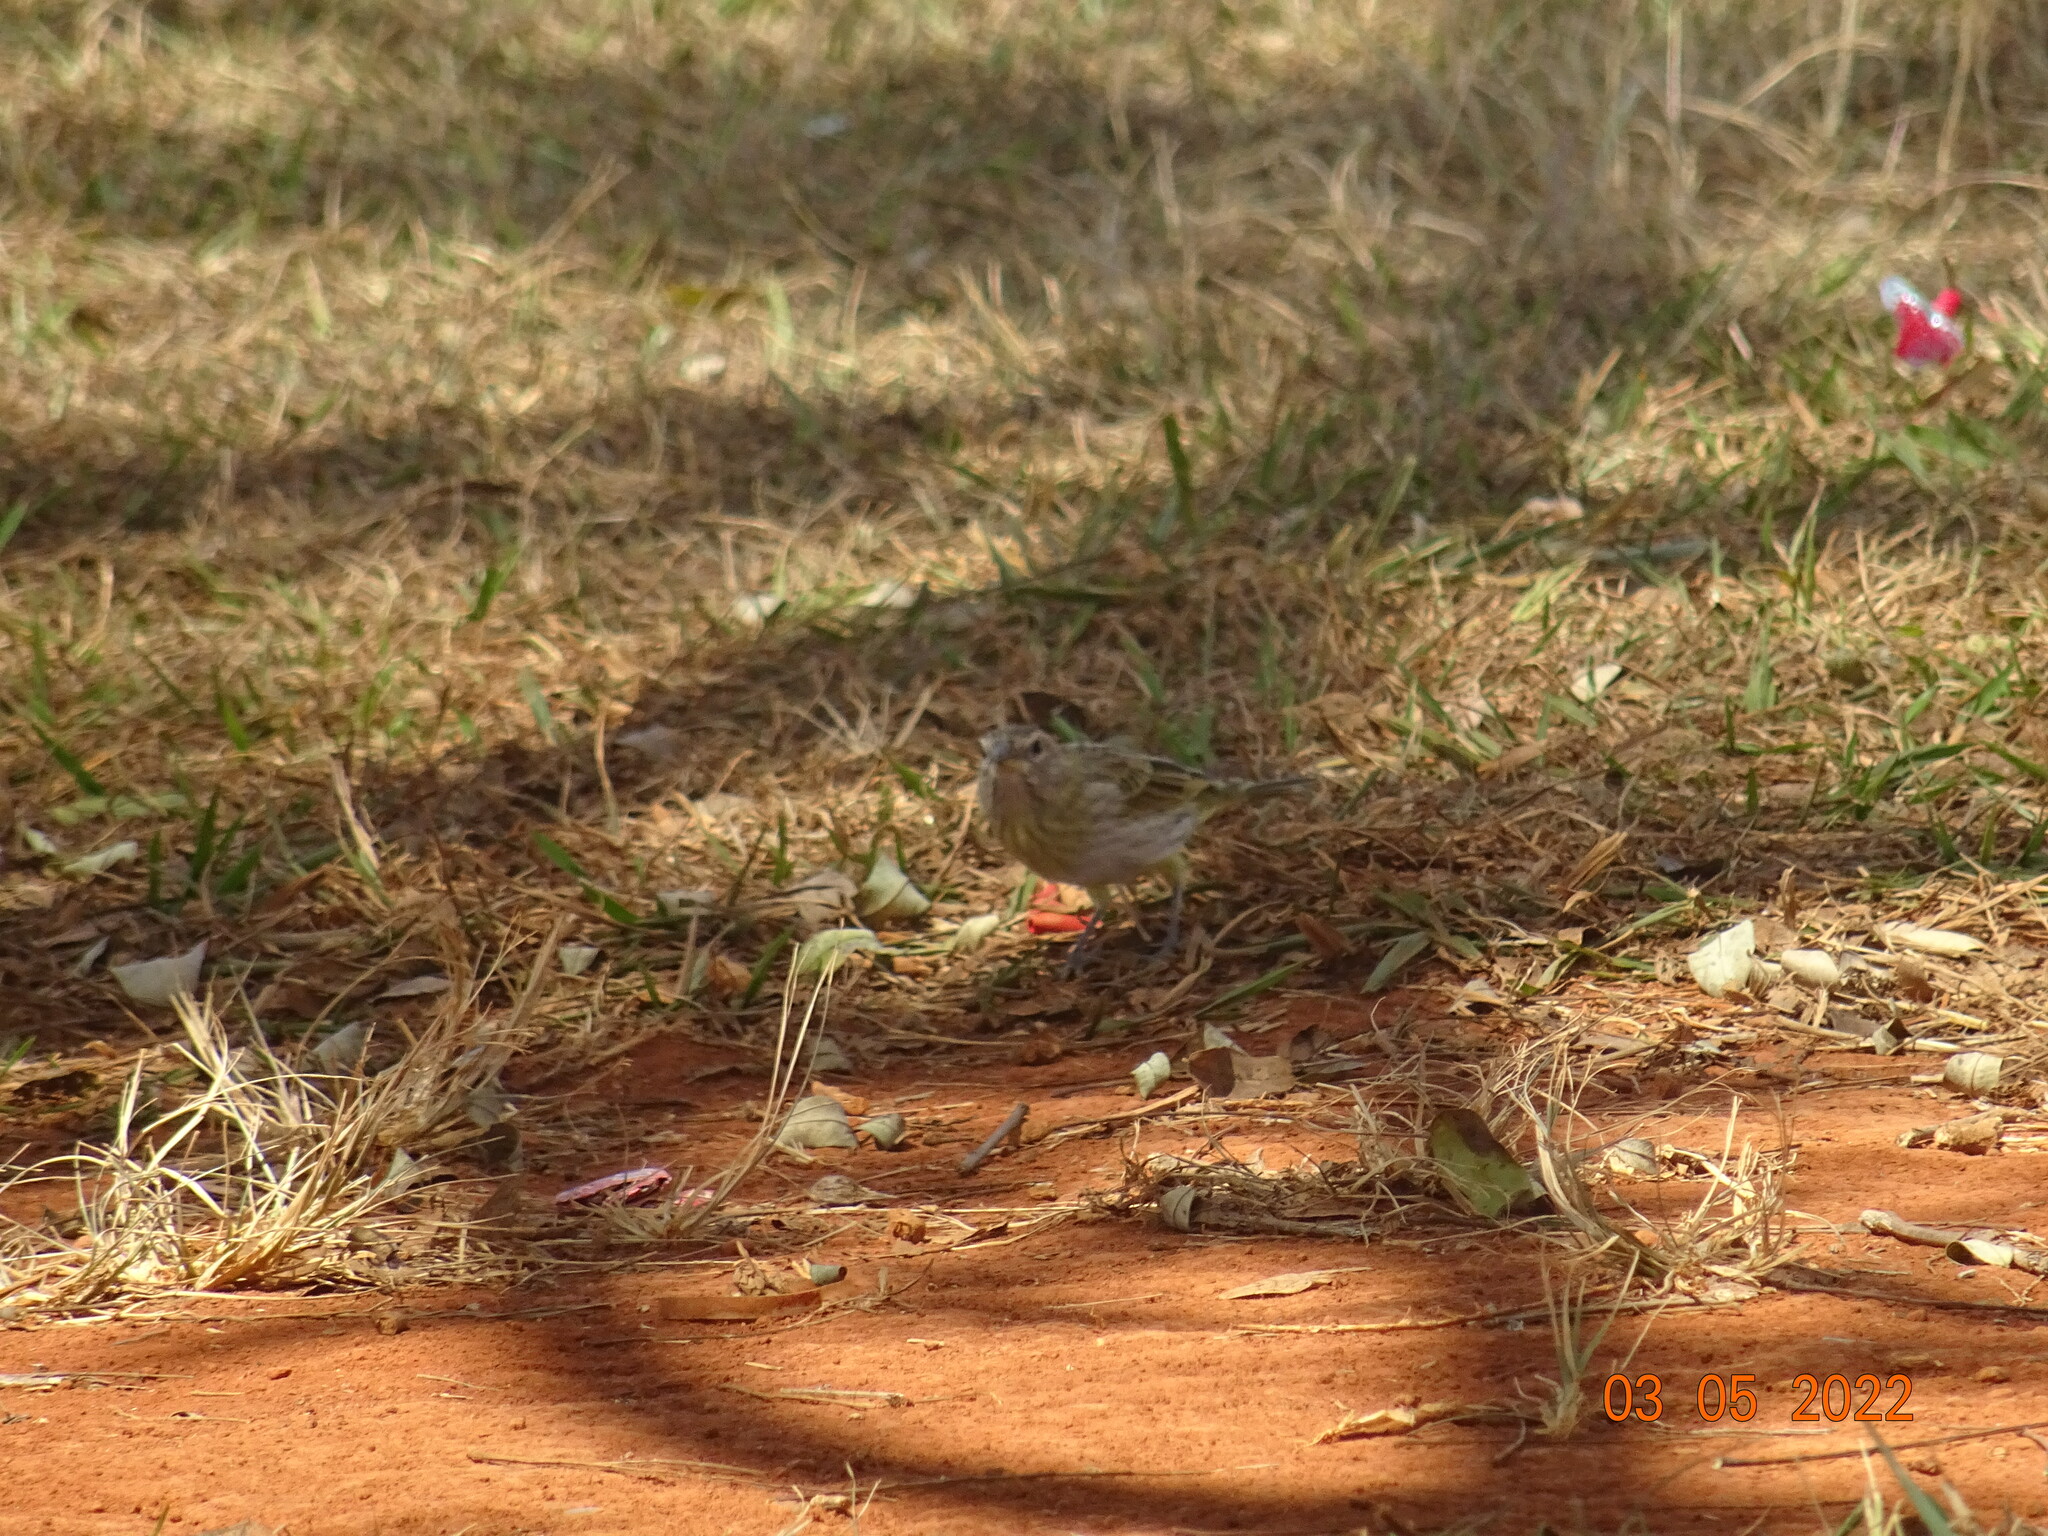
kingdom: Animalia
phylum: Chordata
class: Aves
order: Passeriformes
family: Thraupidae
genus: Sicalis
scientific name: Sicalis flaveola
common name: Saffron finch
